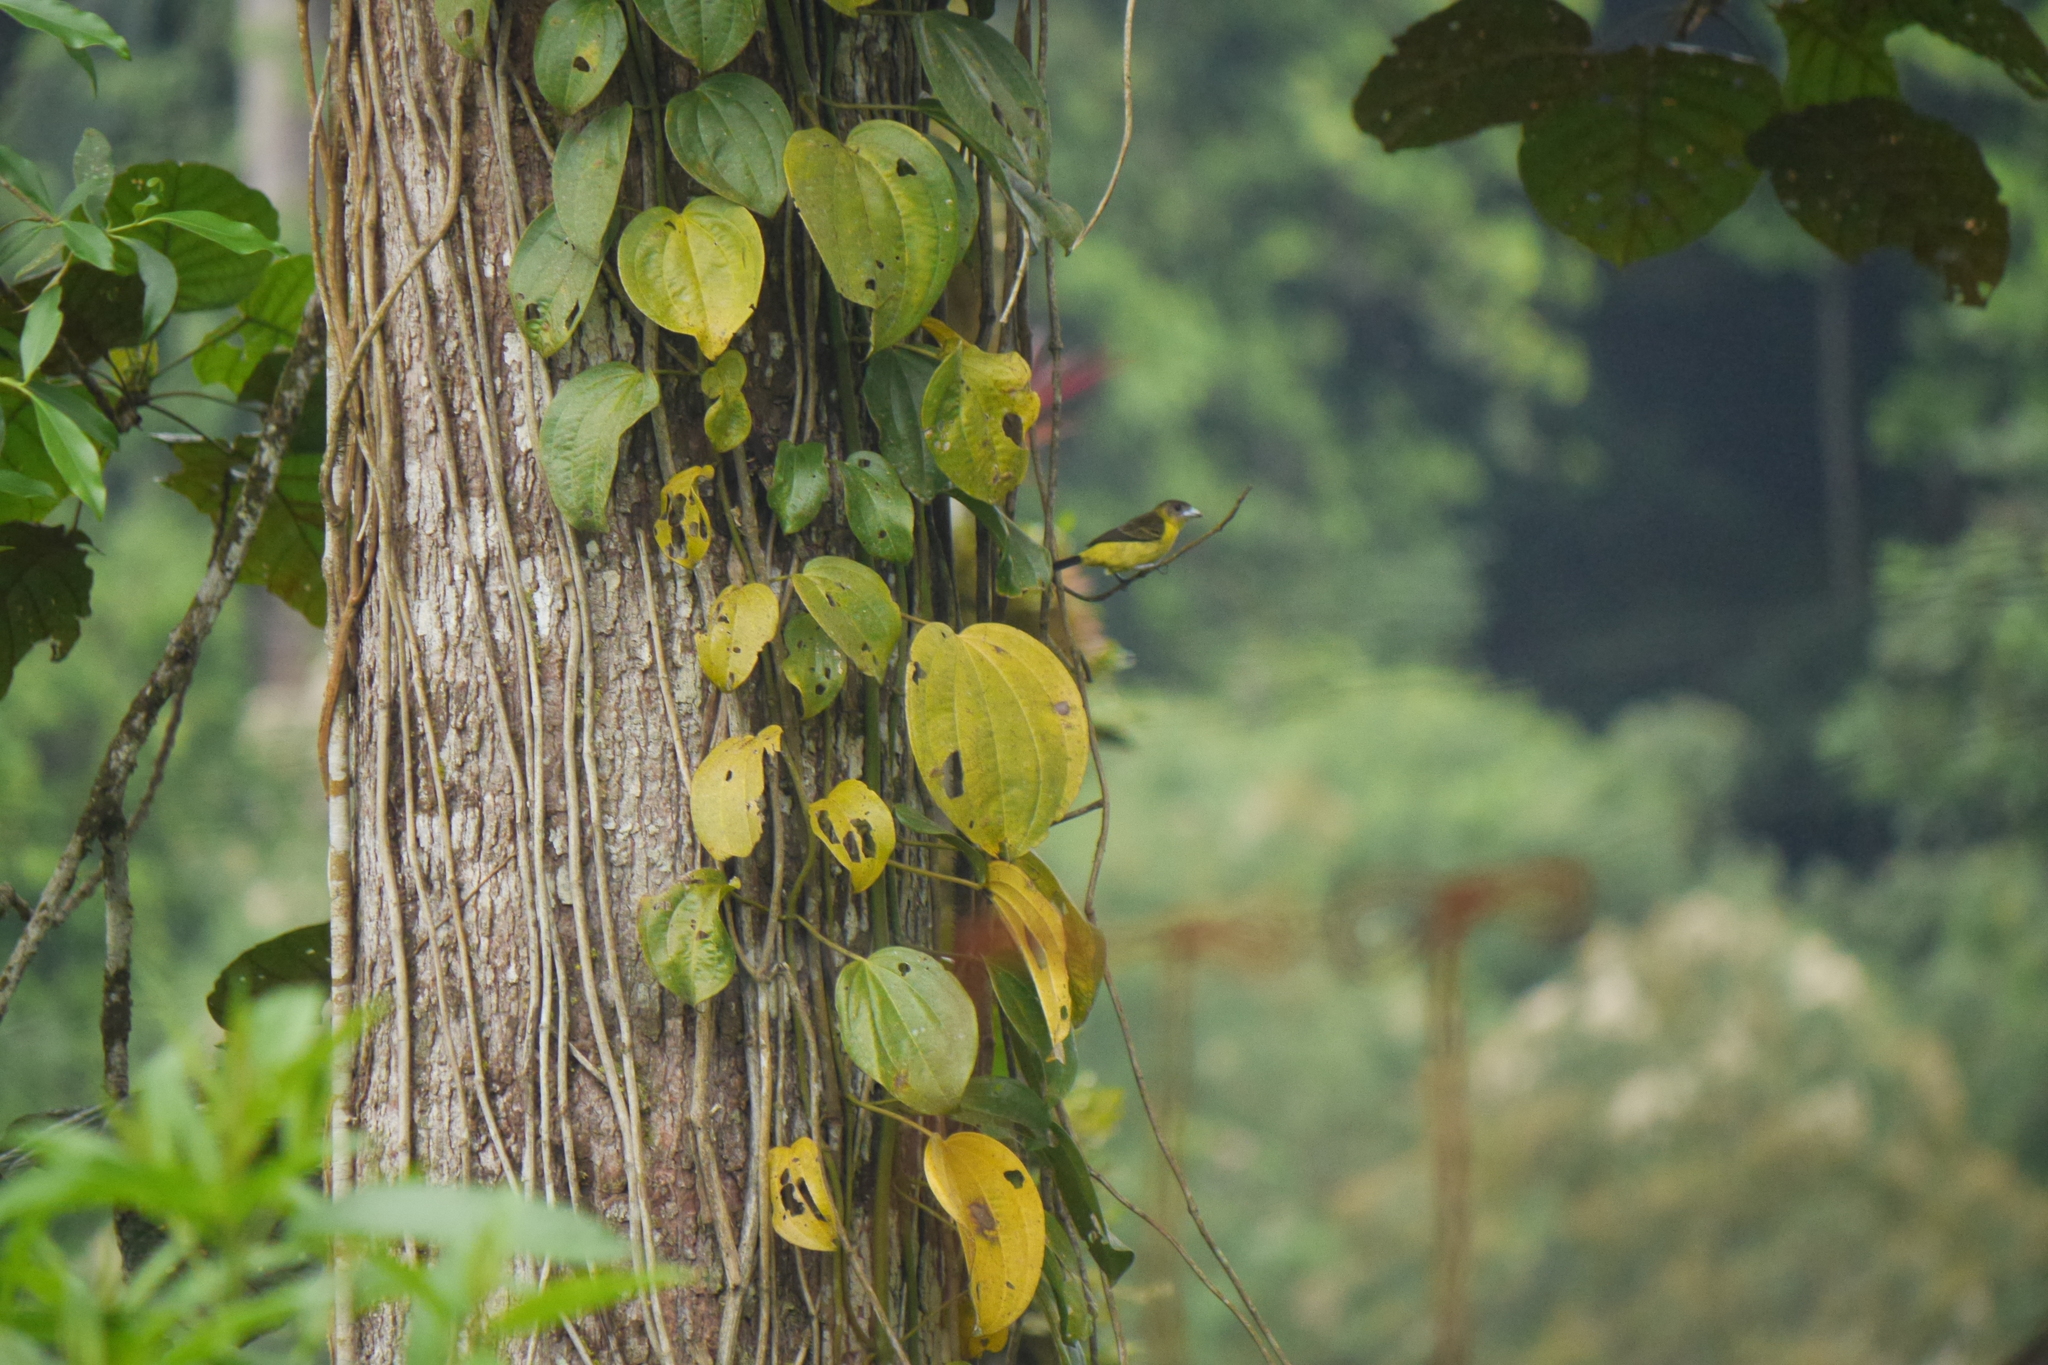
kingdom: Animalia
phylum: Chordata
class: Aves
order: Passeriformes
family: Thraupidae
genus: Ramphocelus
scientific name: Ramphocelus flammigerus
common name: Flame-rumped tanager
